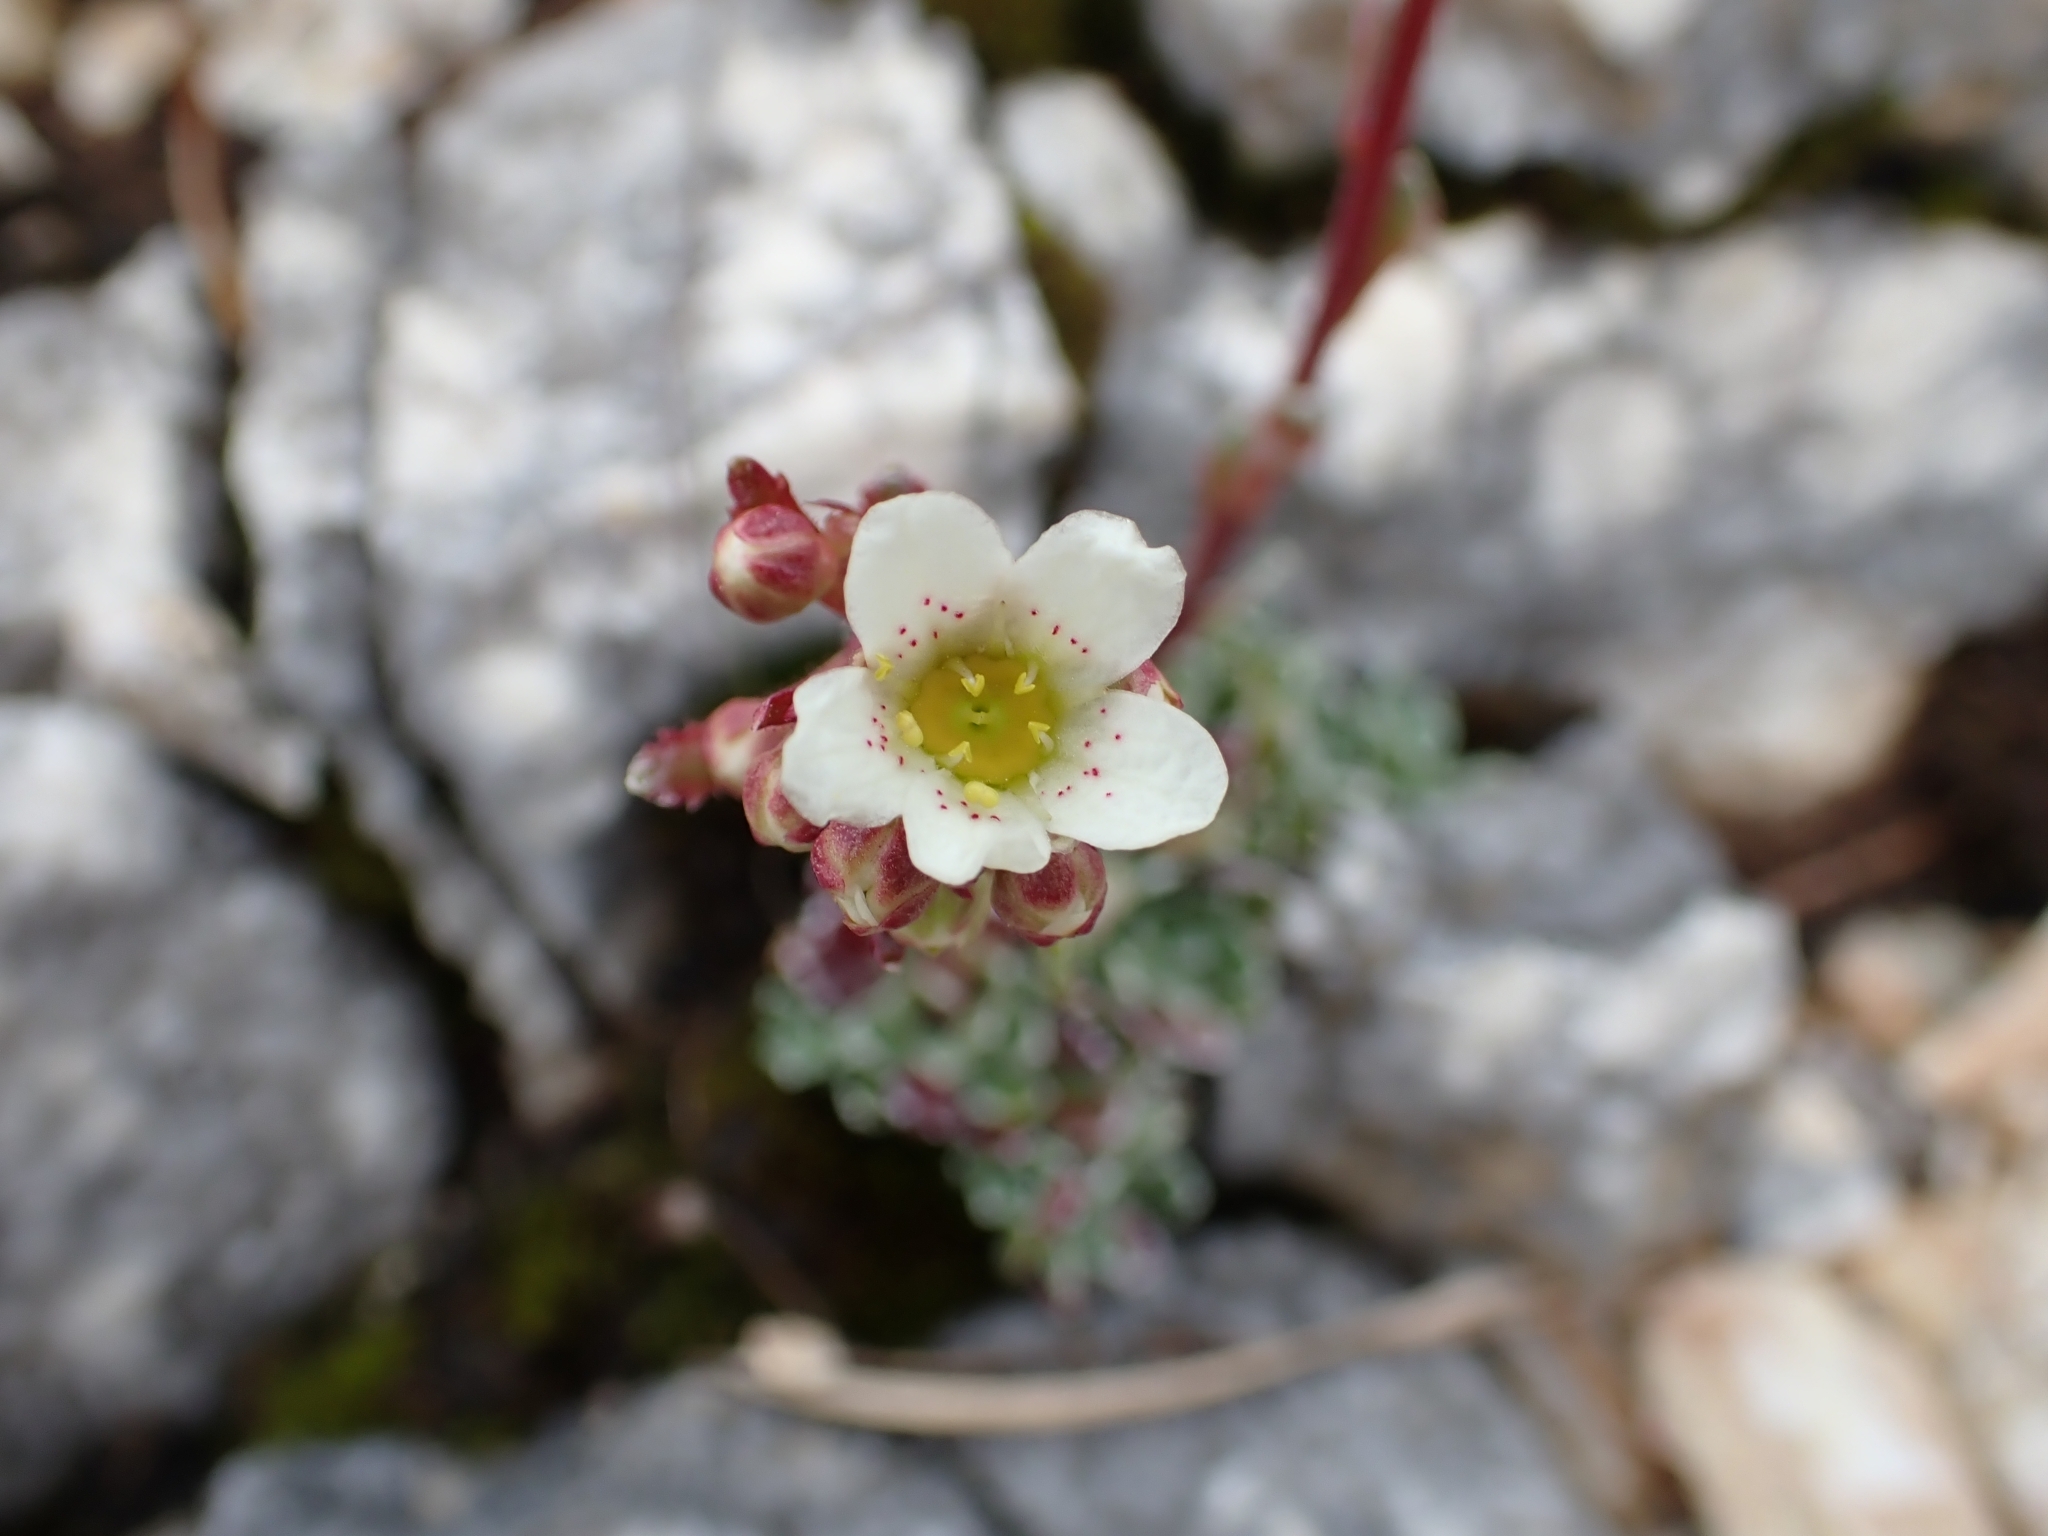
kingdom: Plantae
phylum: Tracheophyta
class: Magnoliopsida
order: Saxifragales
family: Saxifragaceae
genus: Saxifraga
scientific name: Saxifraga paniculata
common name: Livelong saxifrage
